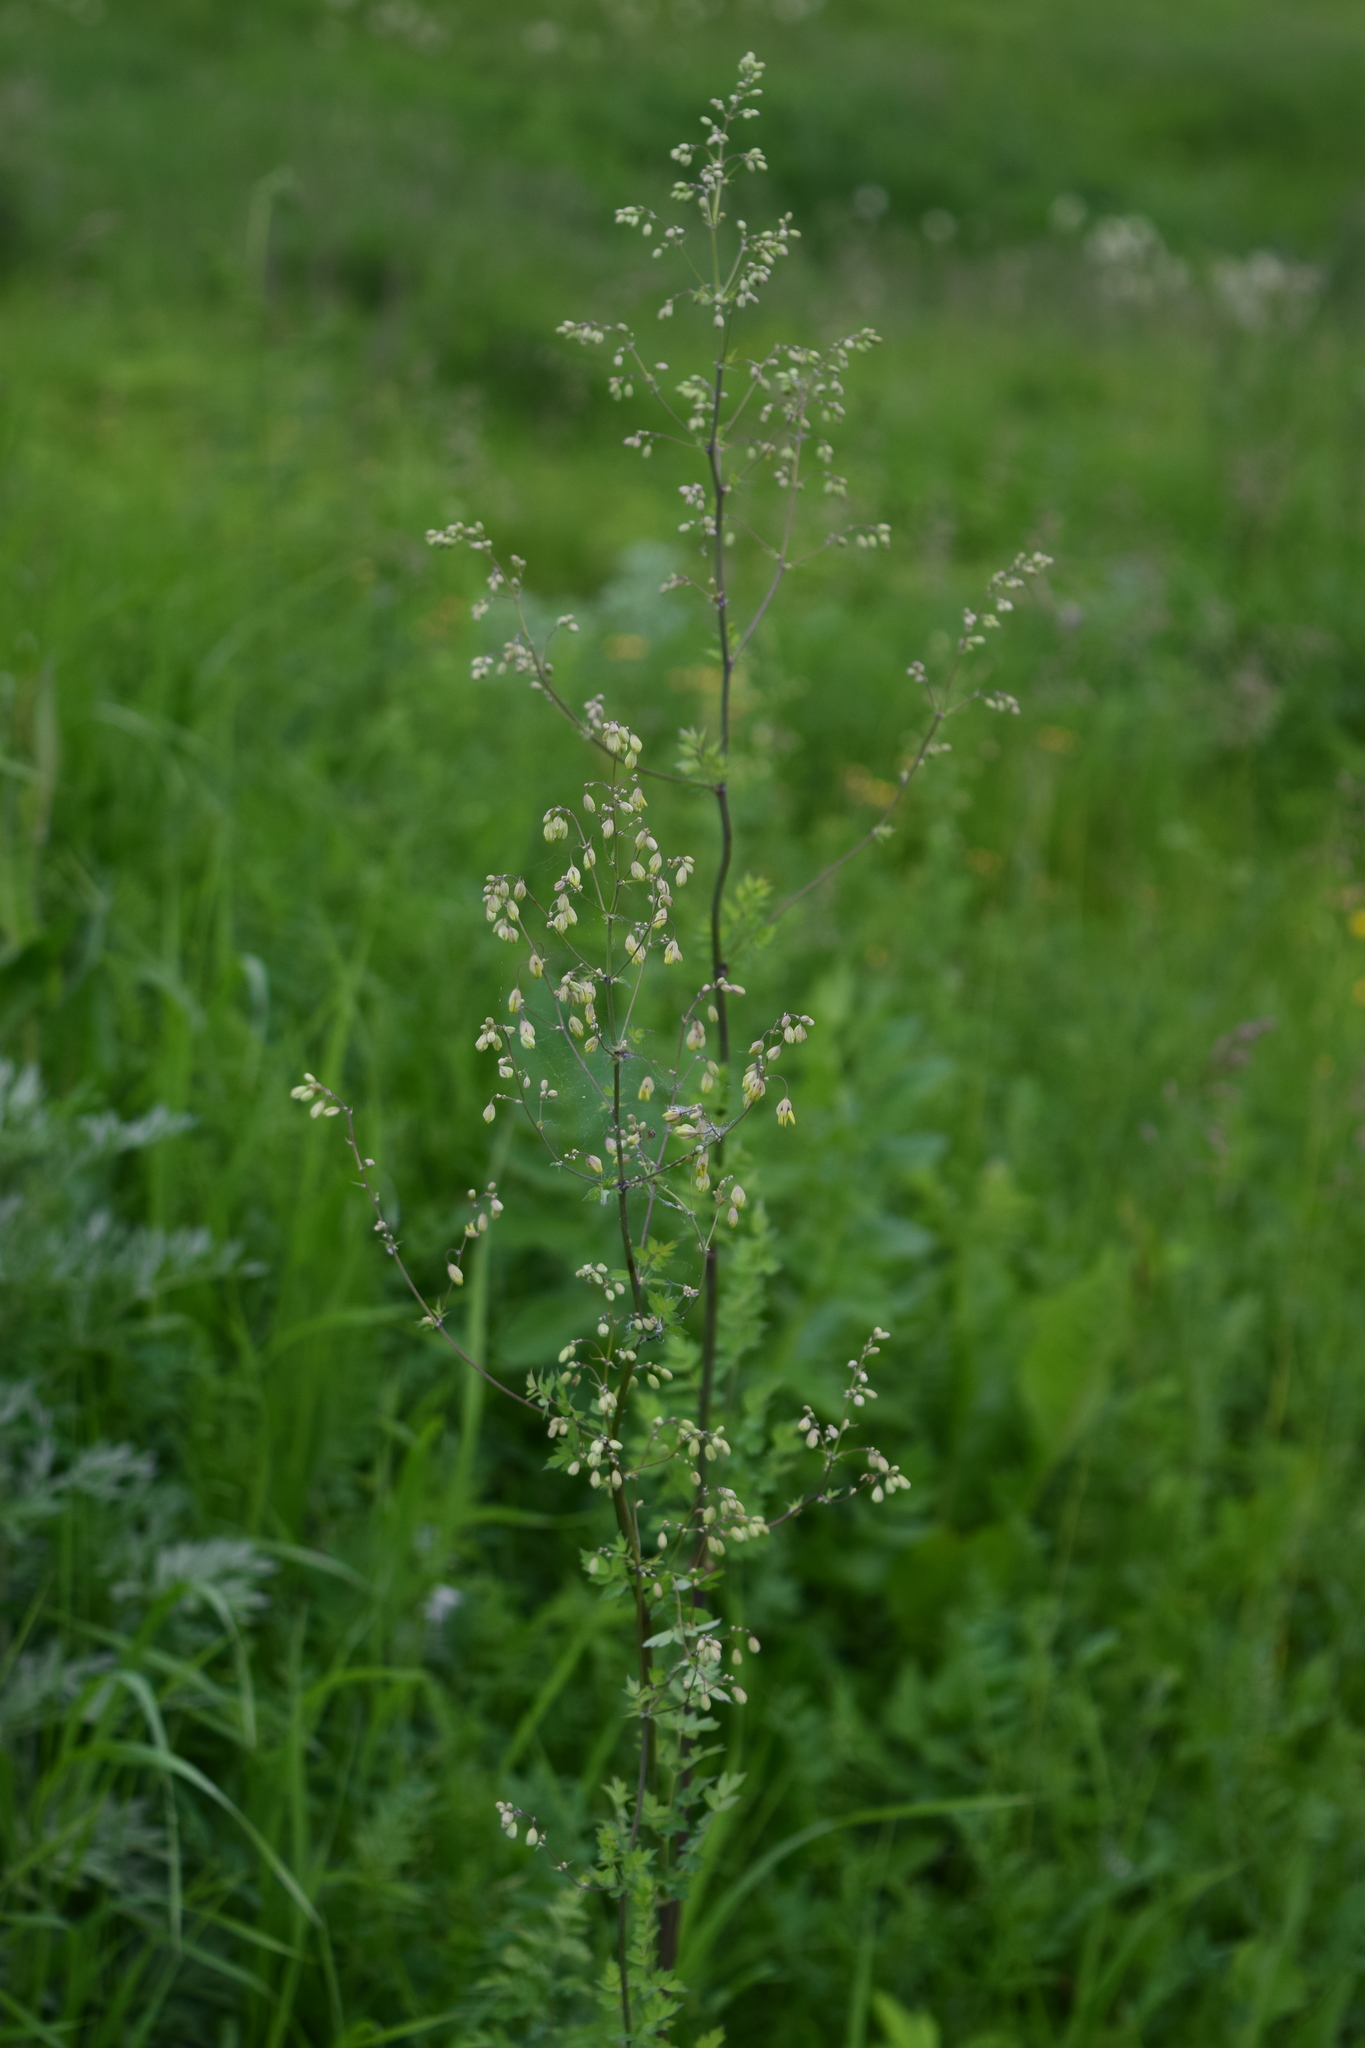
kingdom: Plantae
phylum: Tracheophyta
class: Magnoliopsida
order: Ranunculales
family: Ranunculaceae
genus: Thalictrum
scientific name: Thalictrum minus
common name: Lesser meadow-rue
